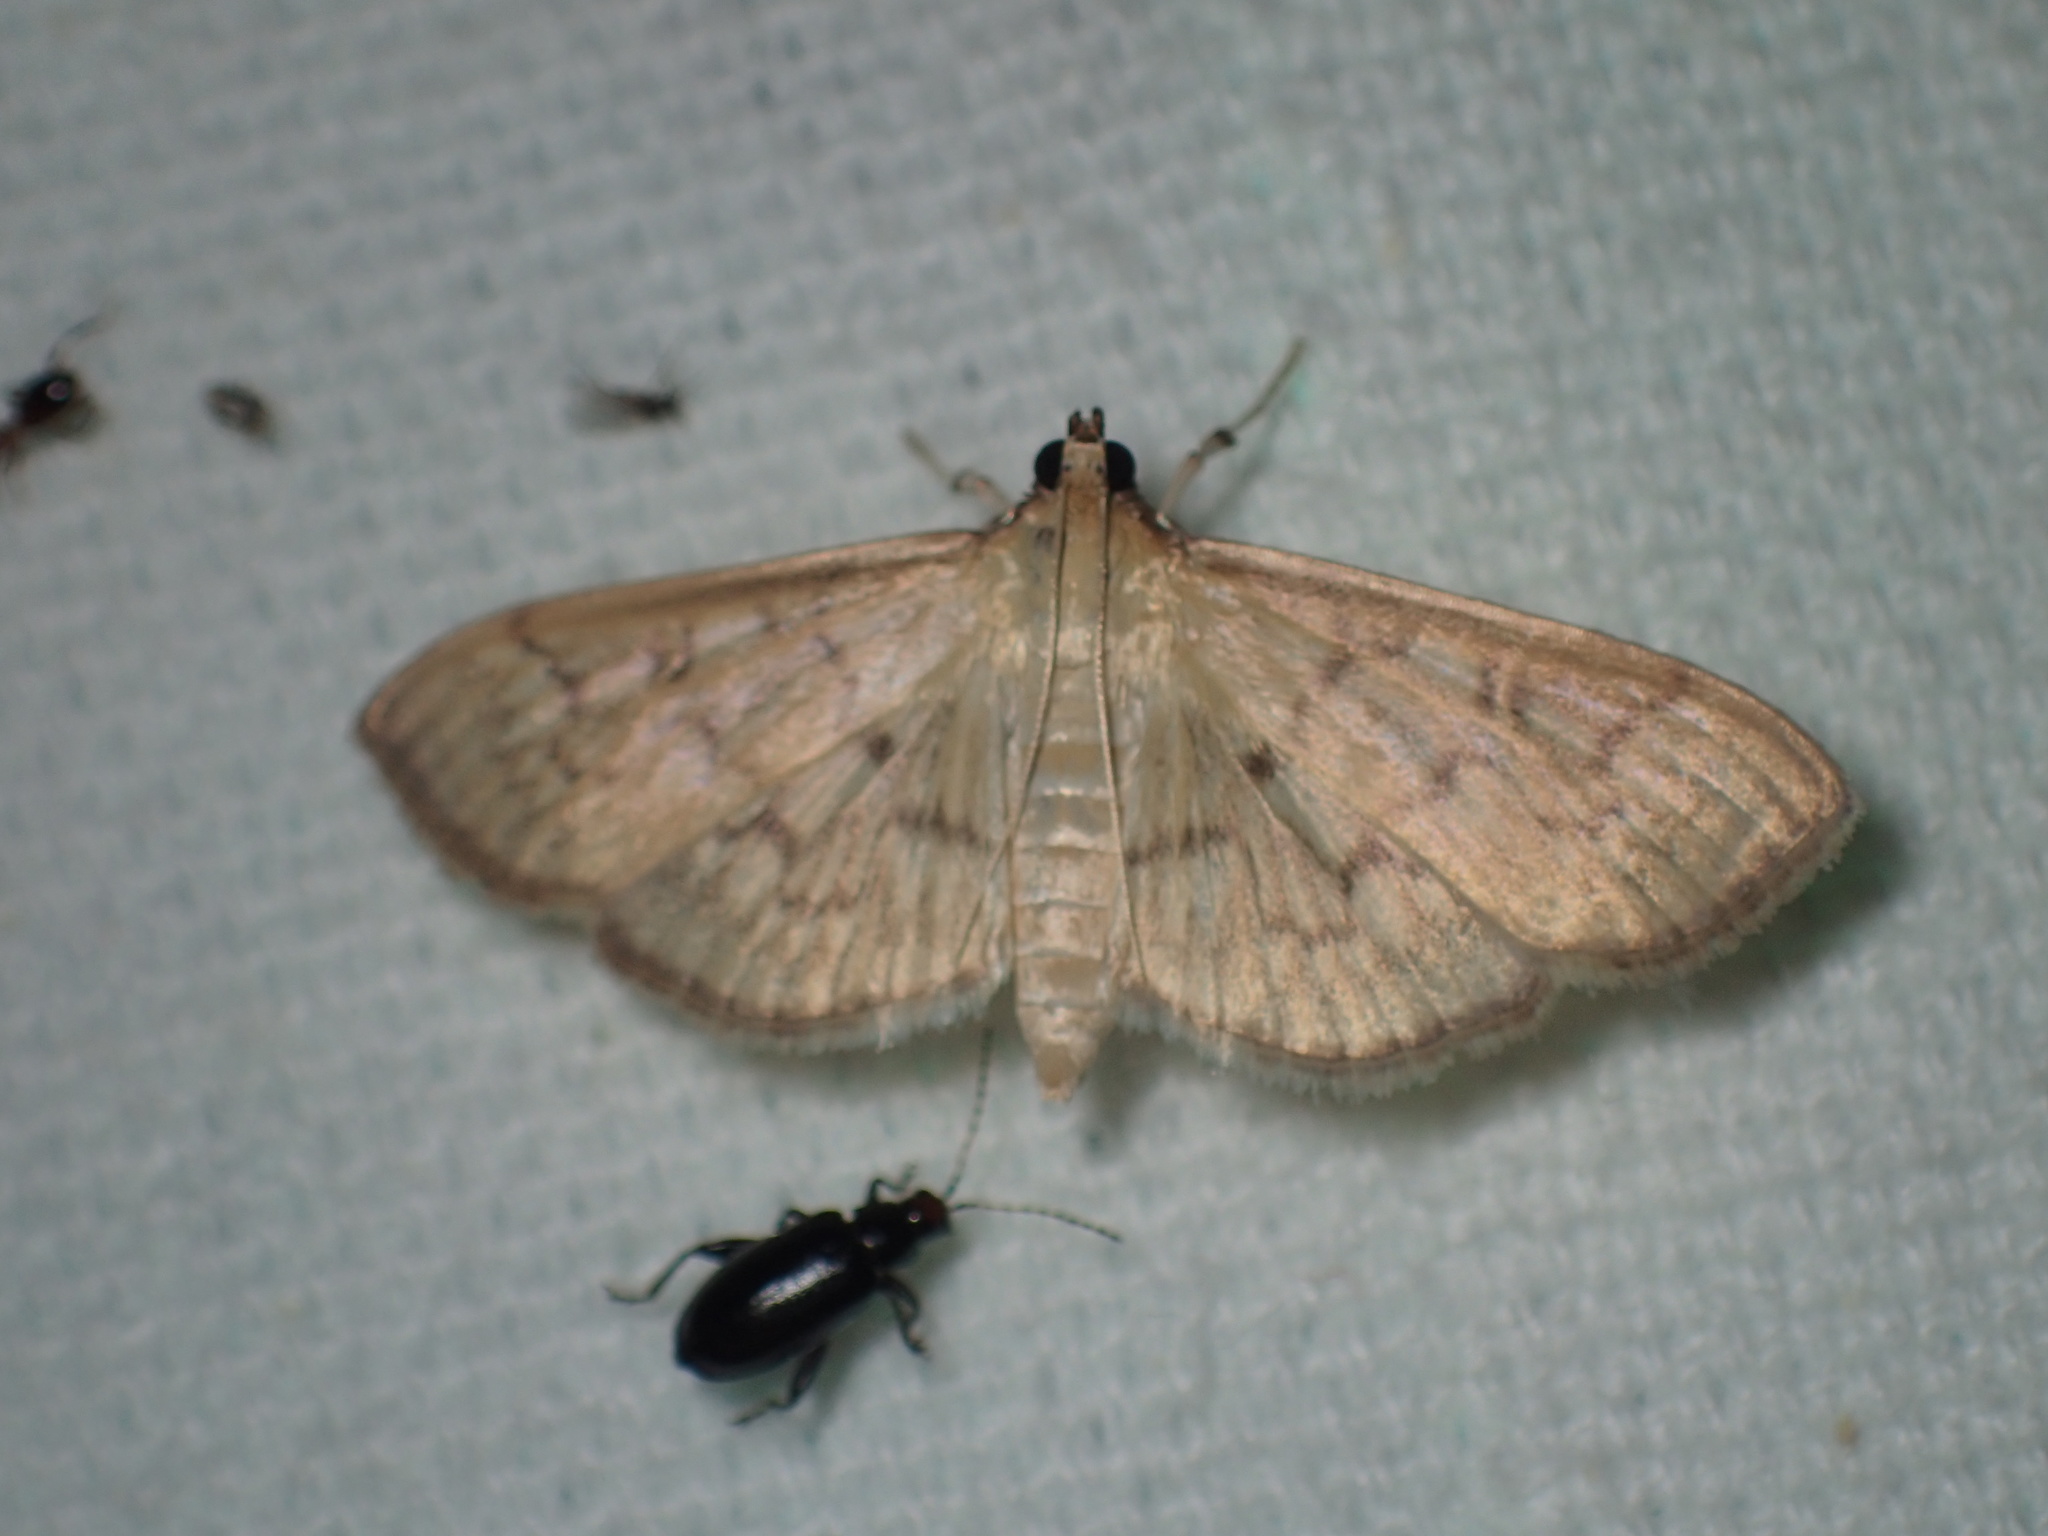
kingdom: Animalia
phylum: Arthropoda
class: Insecta
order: Lepidoptera
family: Crambidae
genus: Herpetogramma
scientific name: Herpetogramma aeglealis
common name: Serpentine webworm moth
